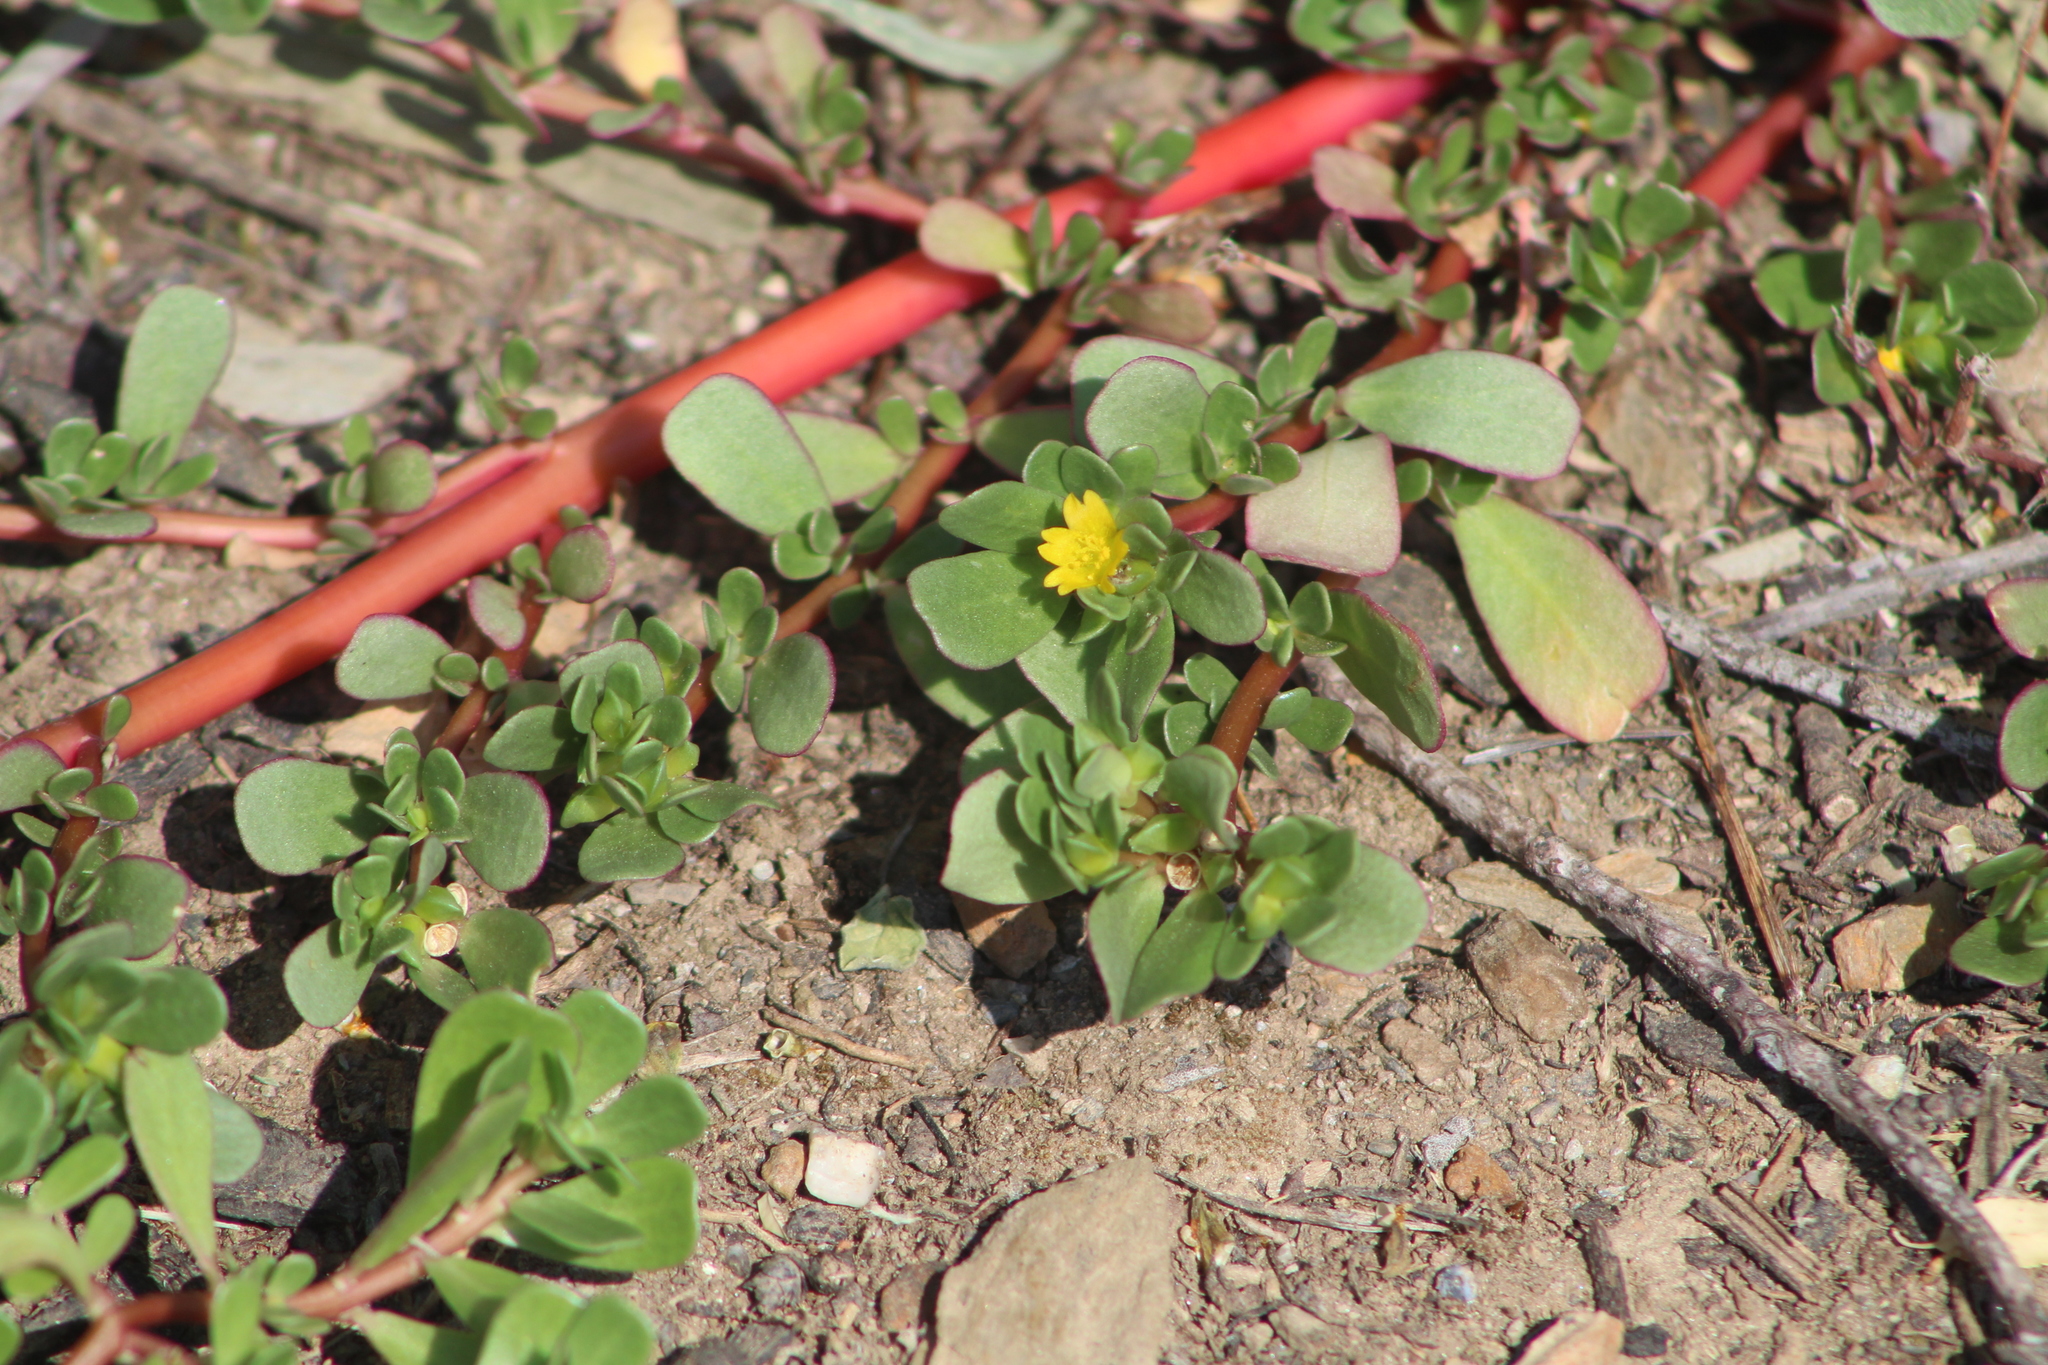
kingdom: Plantae
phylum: Tracheophyta
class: Magnoliopsida
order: Caryophyllales
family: Portulacaceae
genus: Portulaca
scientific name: Portulaca oleracea
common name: Common purslane
